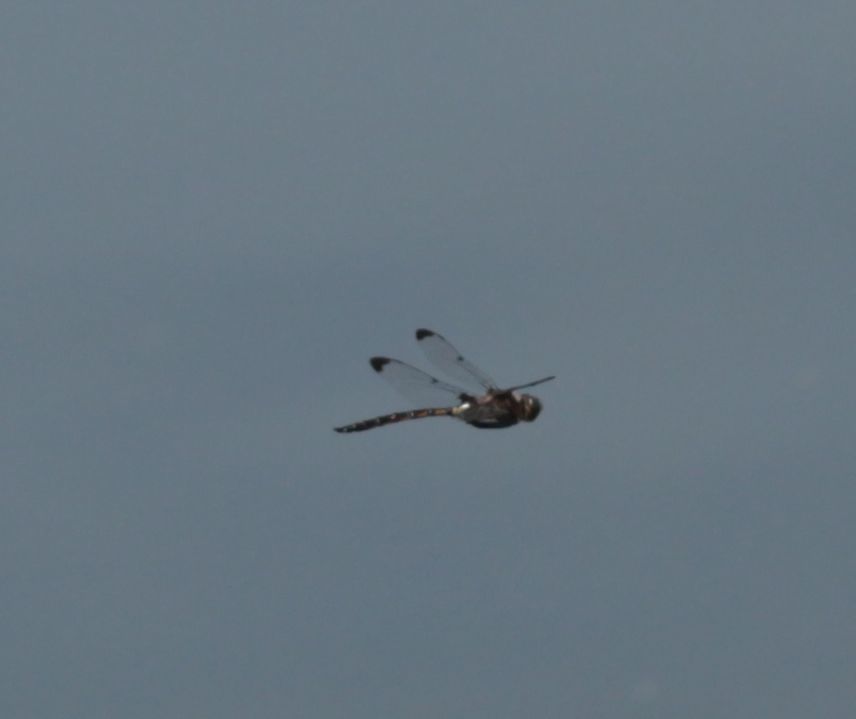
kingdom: Animalia
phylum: Arthropoda
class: Insecta
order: Odonata
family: Corduliidae
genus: Epitheca
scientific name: Epitheca princeps
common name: Prince baskettail
